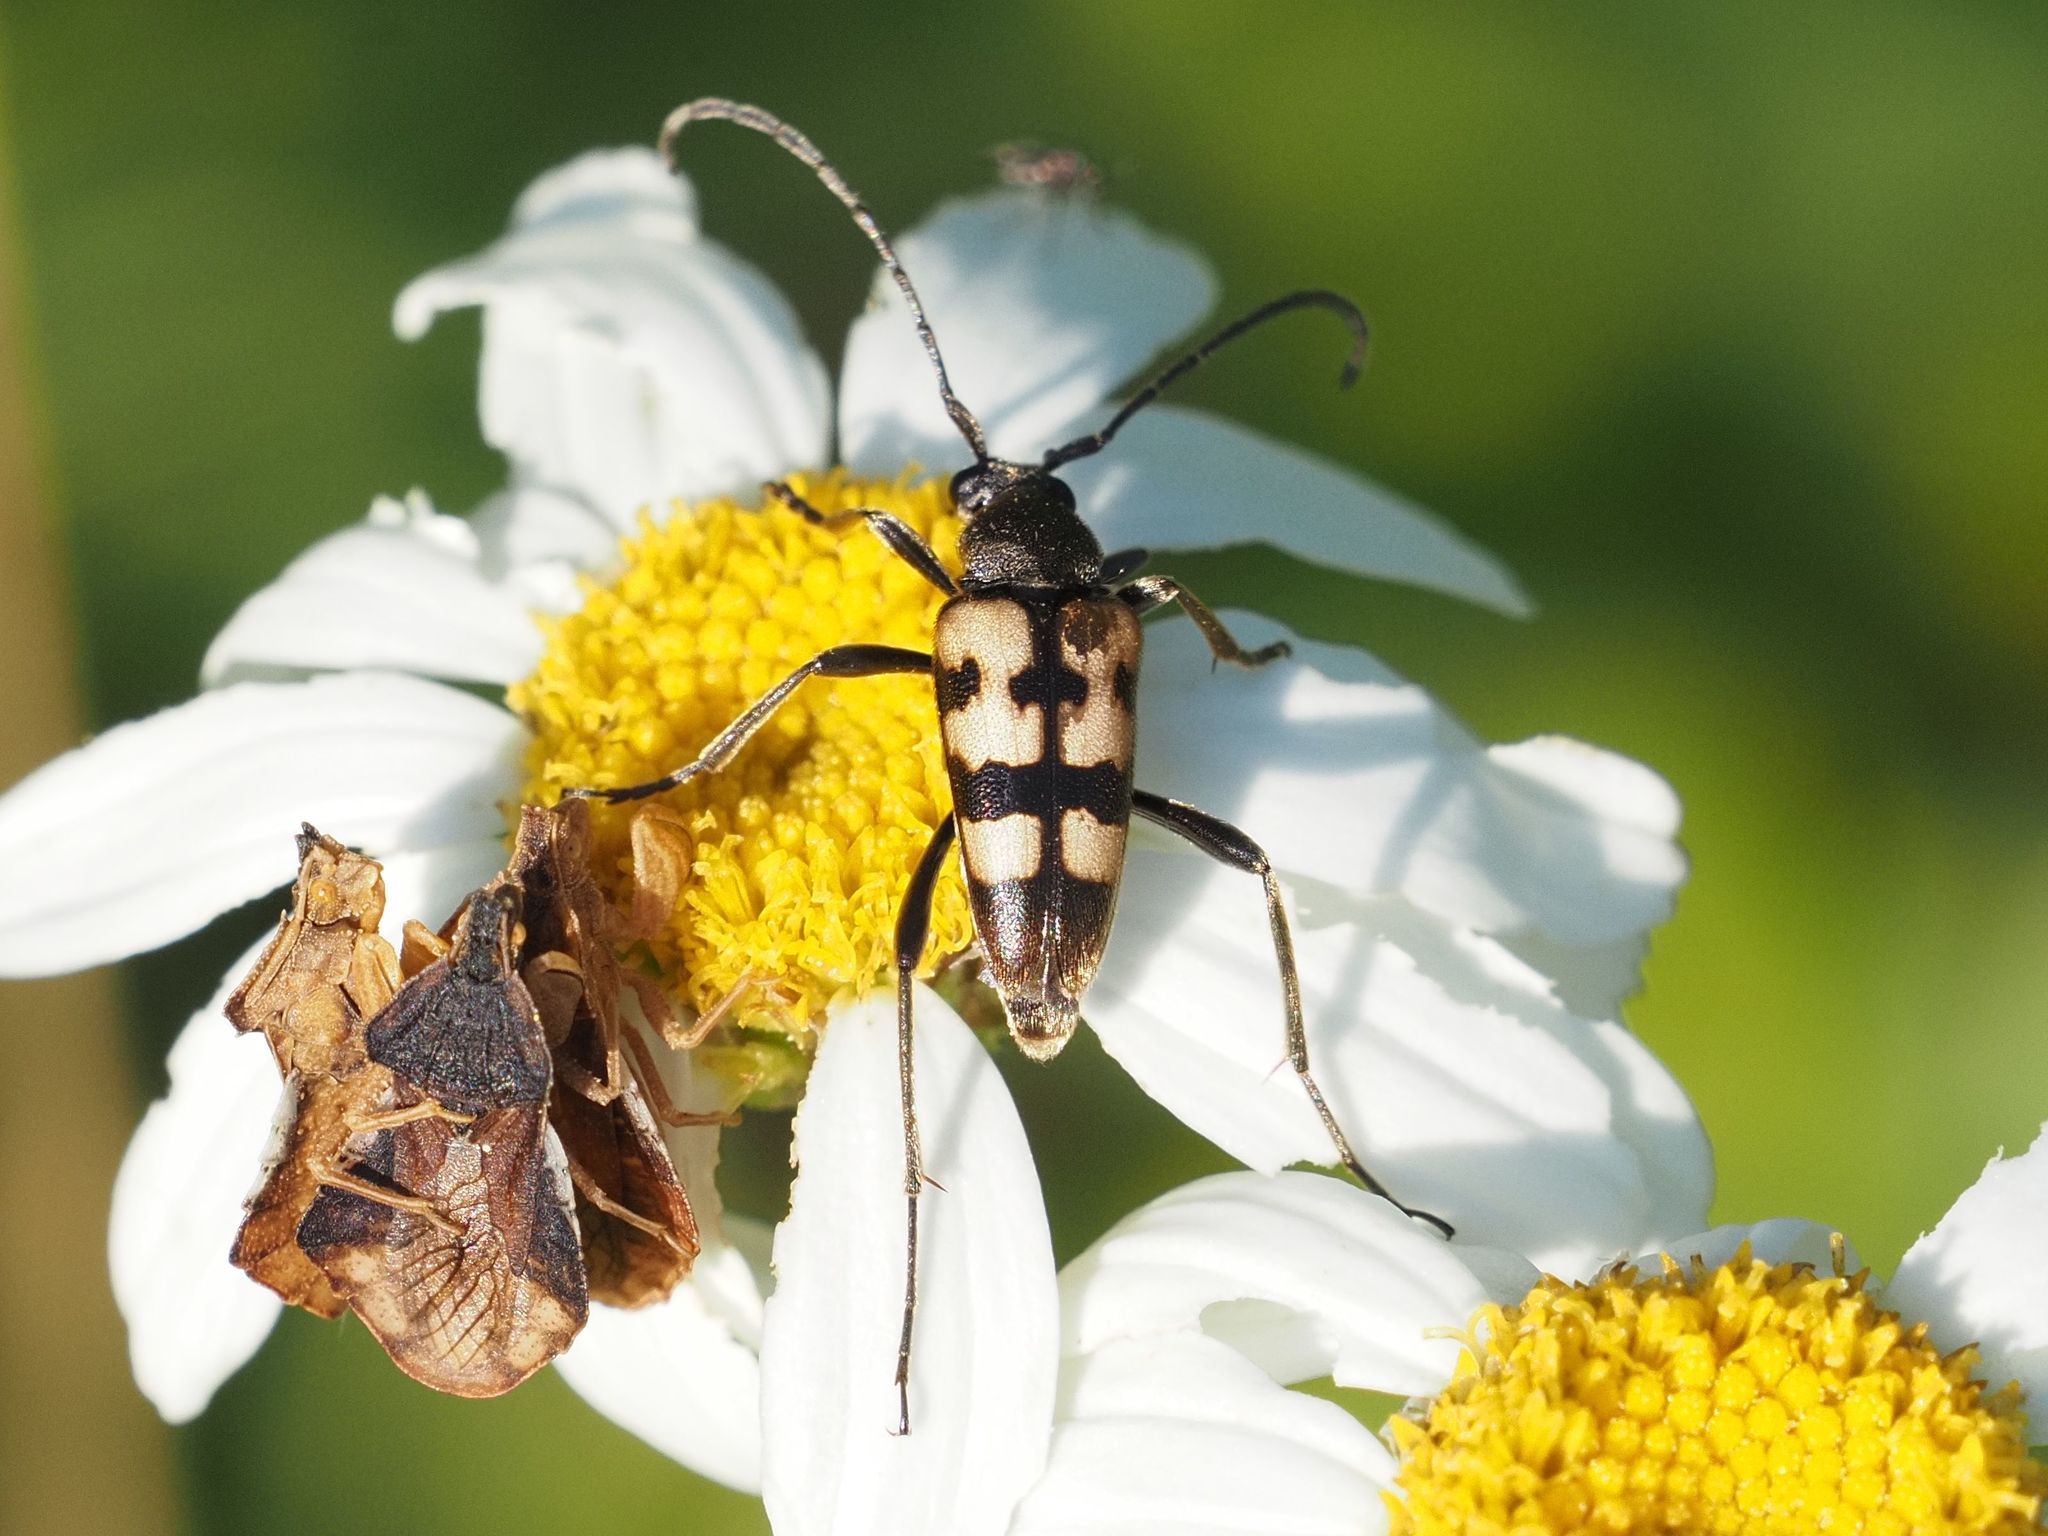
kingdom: Animalia
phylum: Arthropoda
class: Insecta
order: Coleoptera
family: Cerambycidae
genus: Pachytodes
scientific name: Pachytodes
